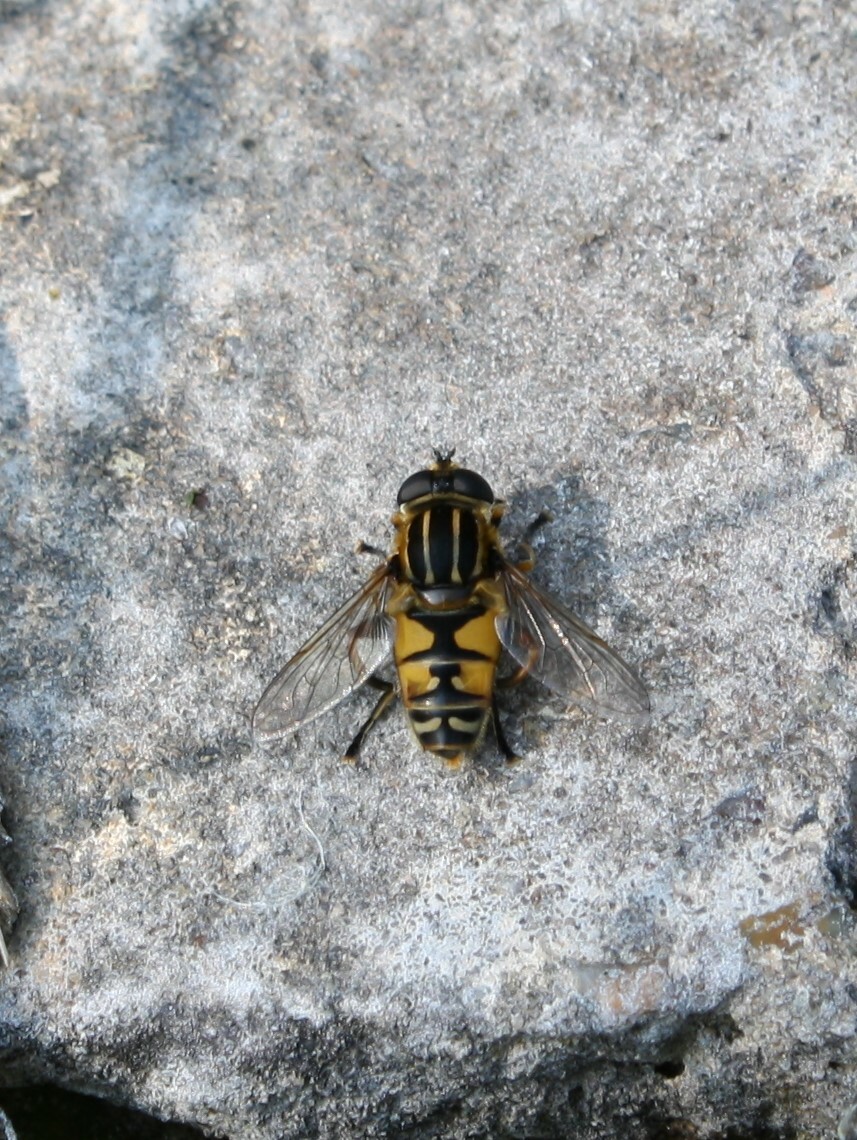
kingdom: Animalia
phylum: Arthropoda
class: Insecta
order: Diptera
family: Syrphidae
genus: Helophilus
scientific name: Helophilus pendulus
